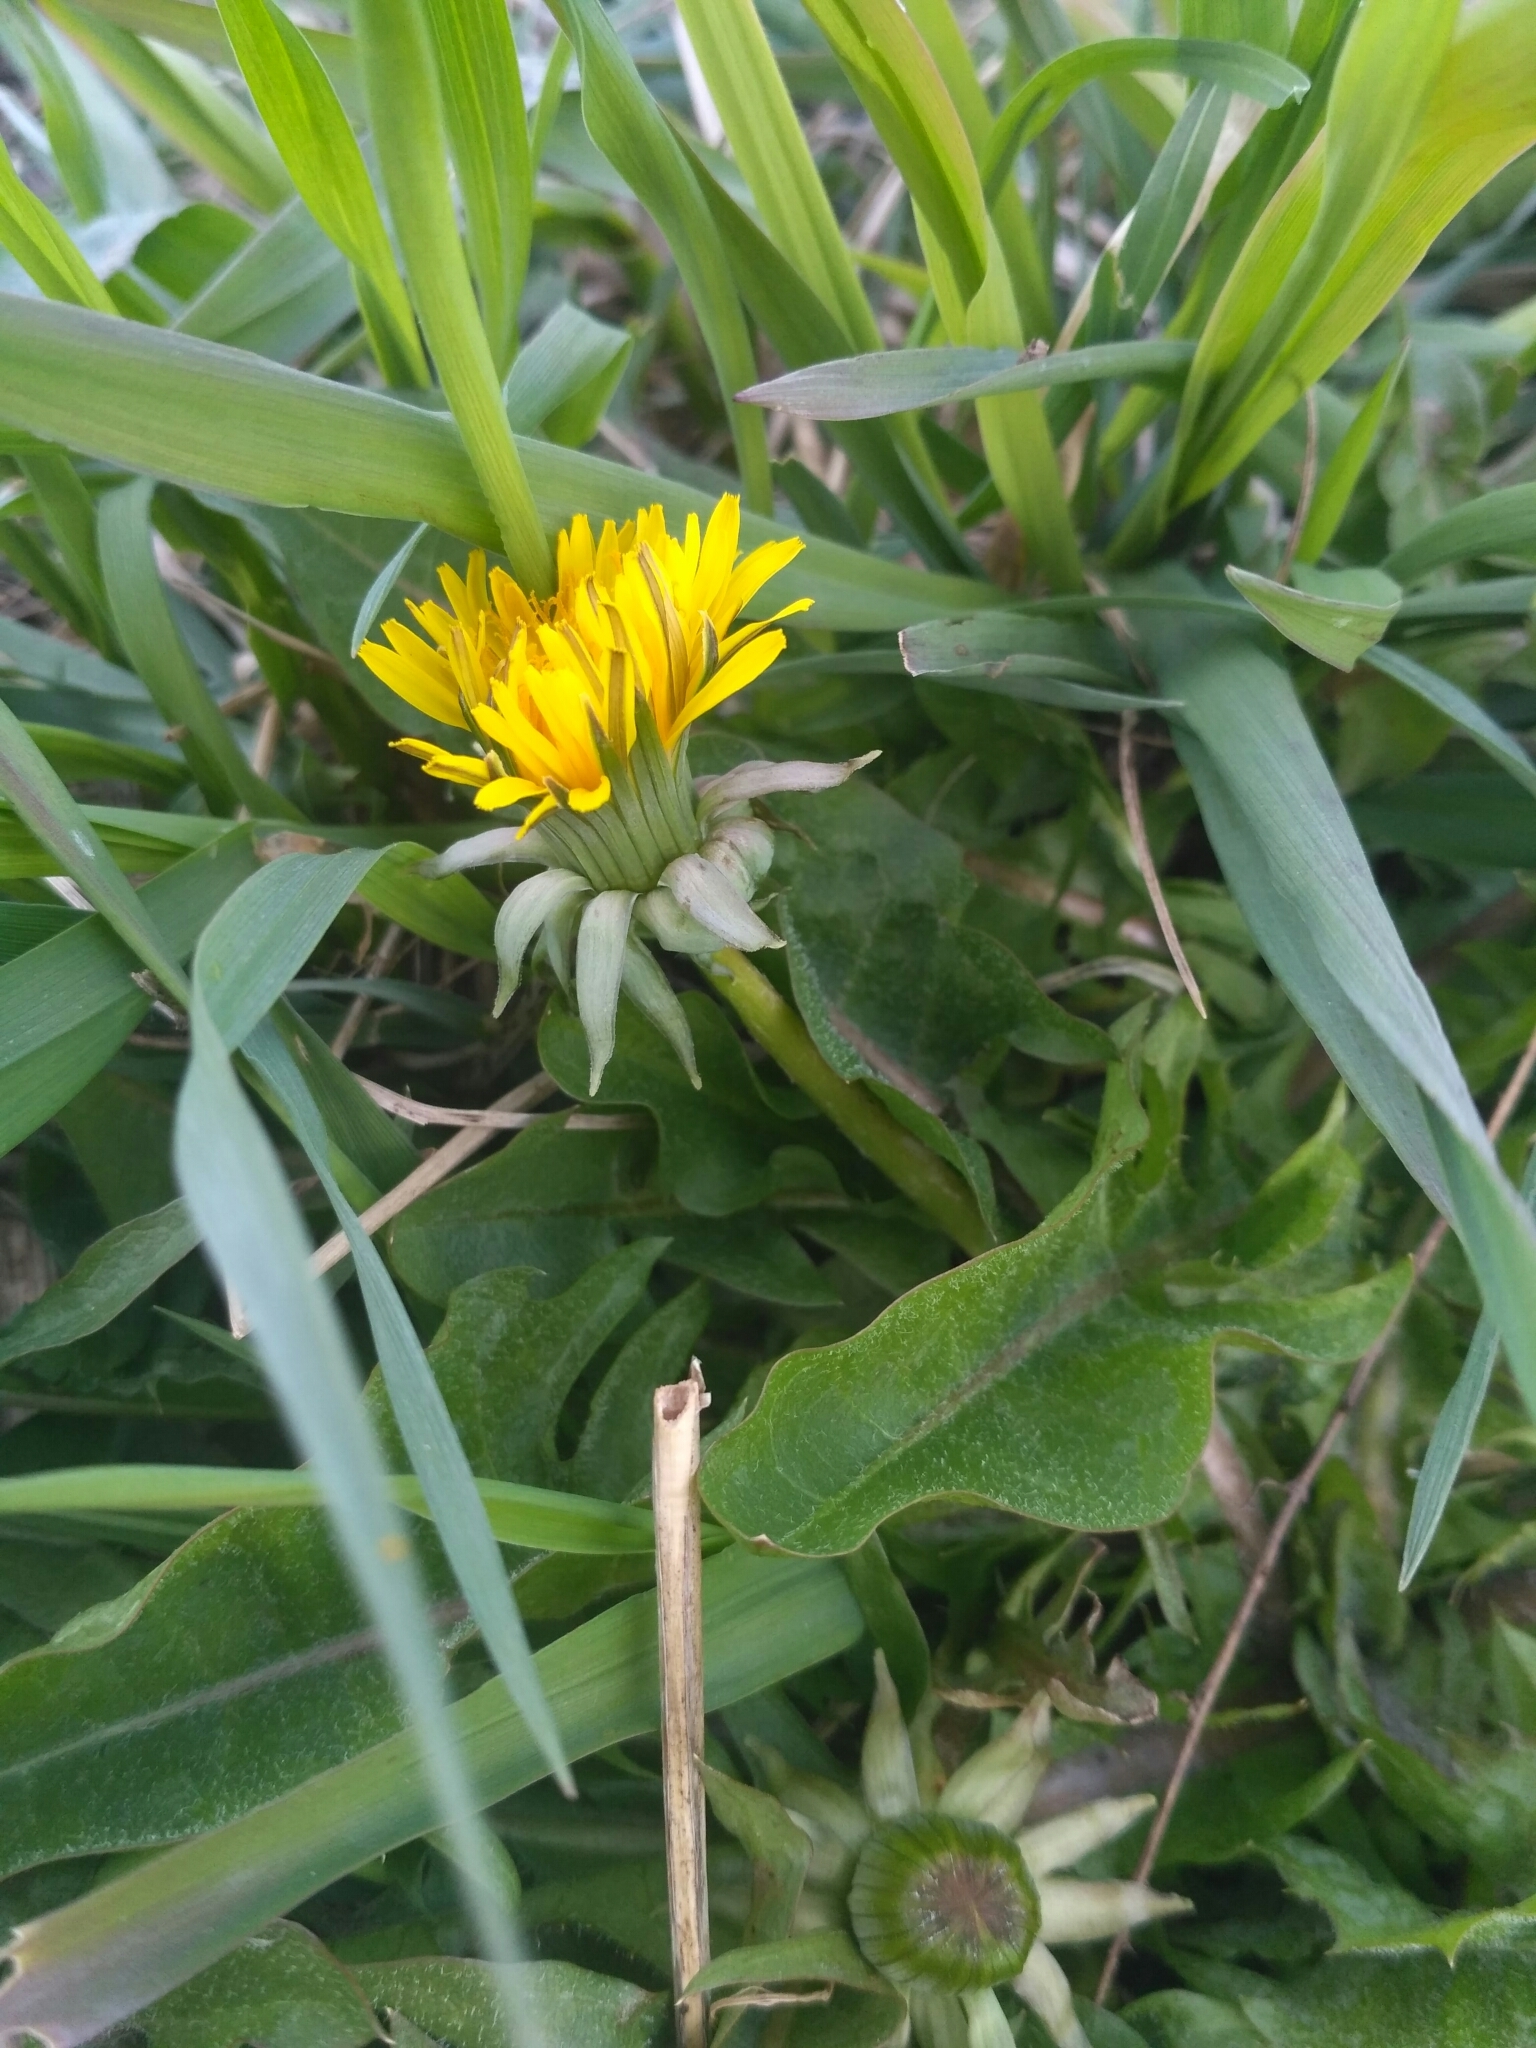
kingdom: Plantae
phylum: Tracheophyta
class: Magnoliopsida
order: Asterales
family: Asteraceae
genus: Taraxacum
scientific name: Taraxacum officinale
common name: Common dandelion
